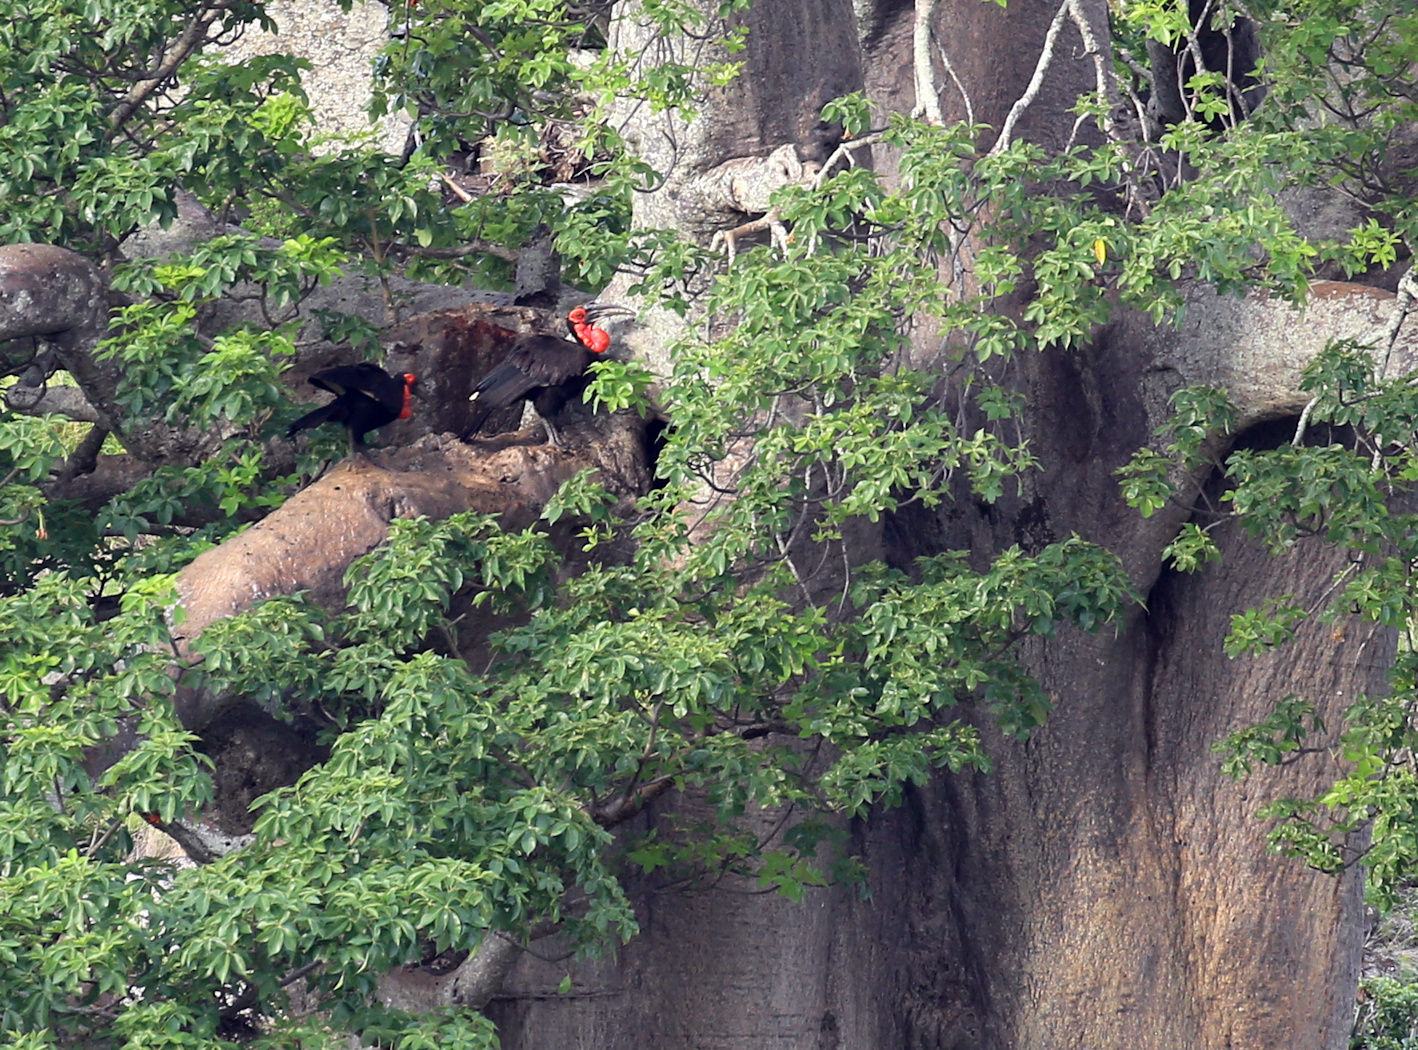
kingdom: Animalia
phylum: Chordata
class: Aves
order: Bucerotiformes
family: Bucorvidae
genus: Bucorvus
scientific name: Bucorvus leadbeateri
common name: Southern ground-hornbill
